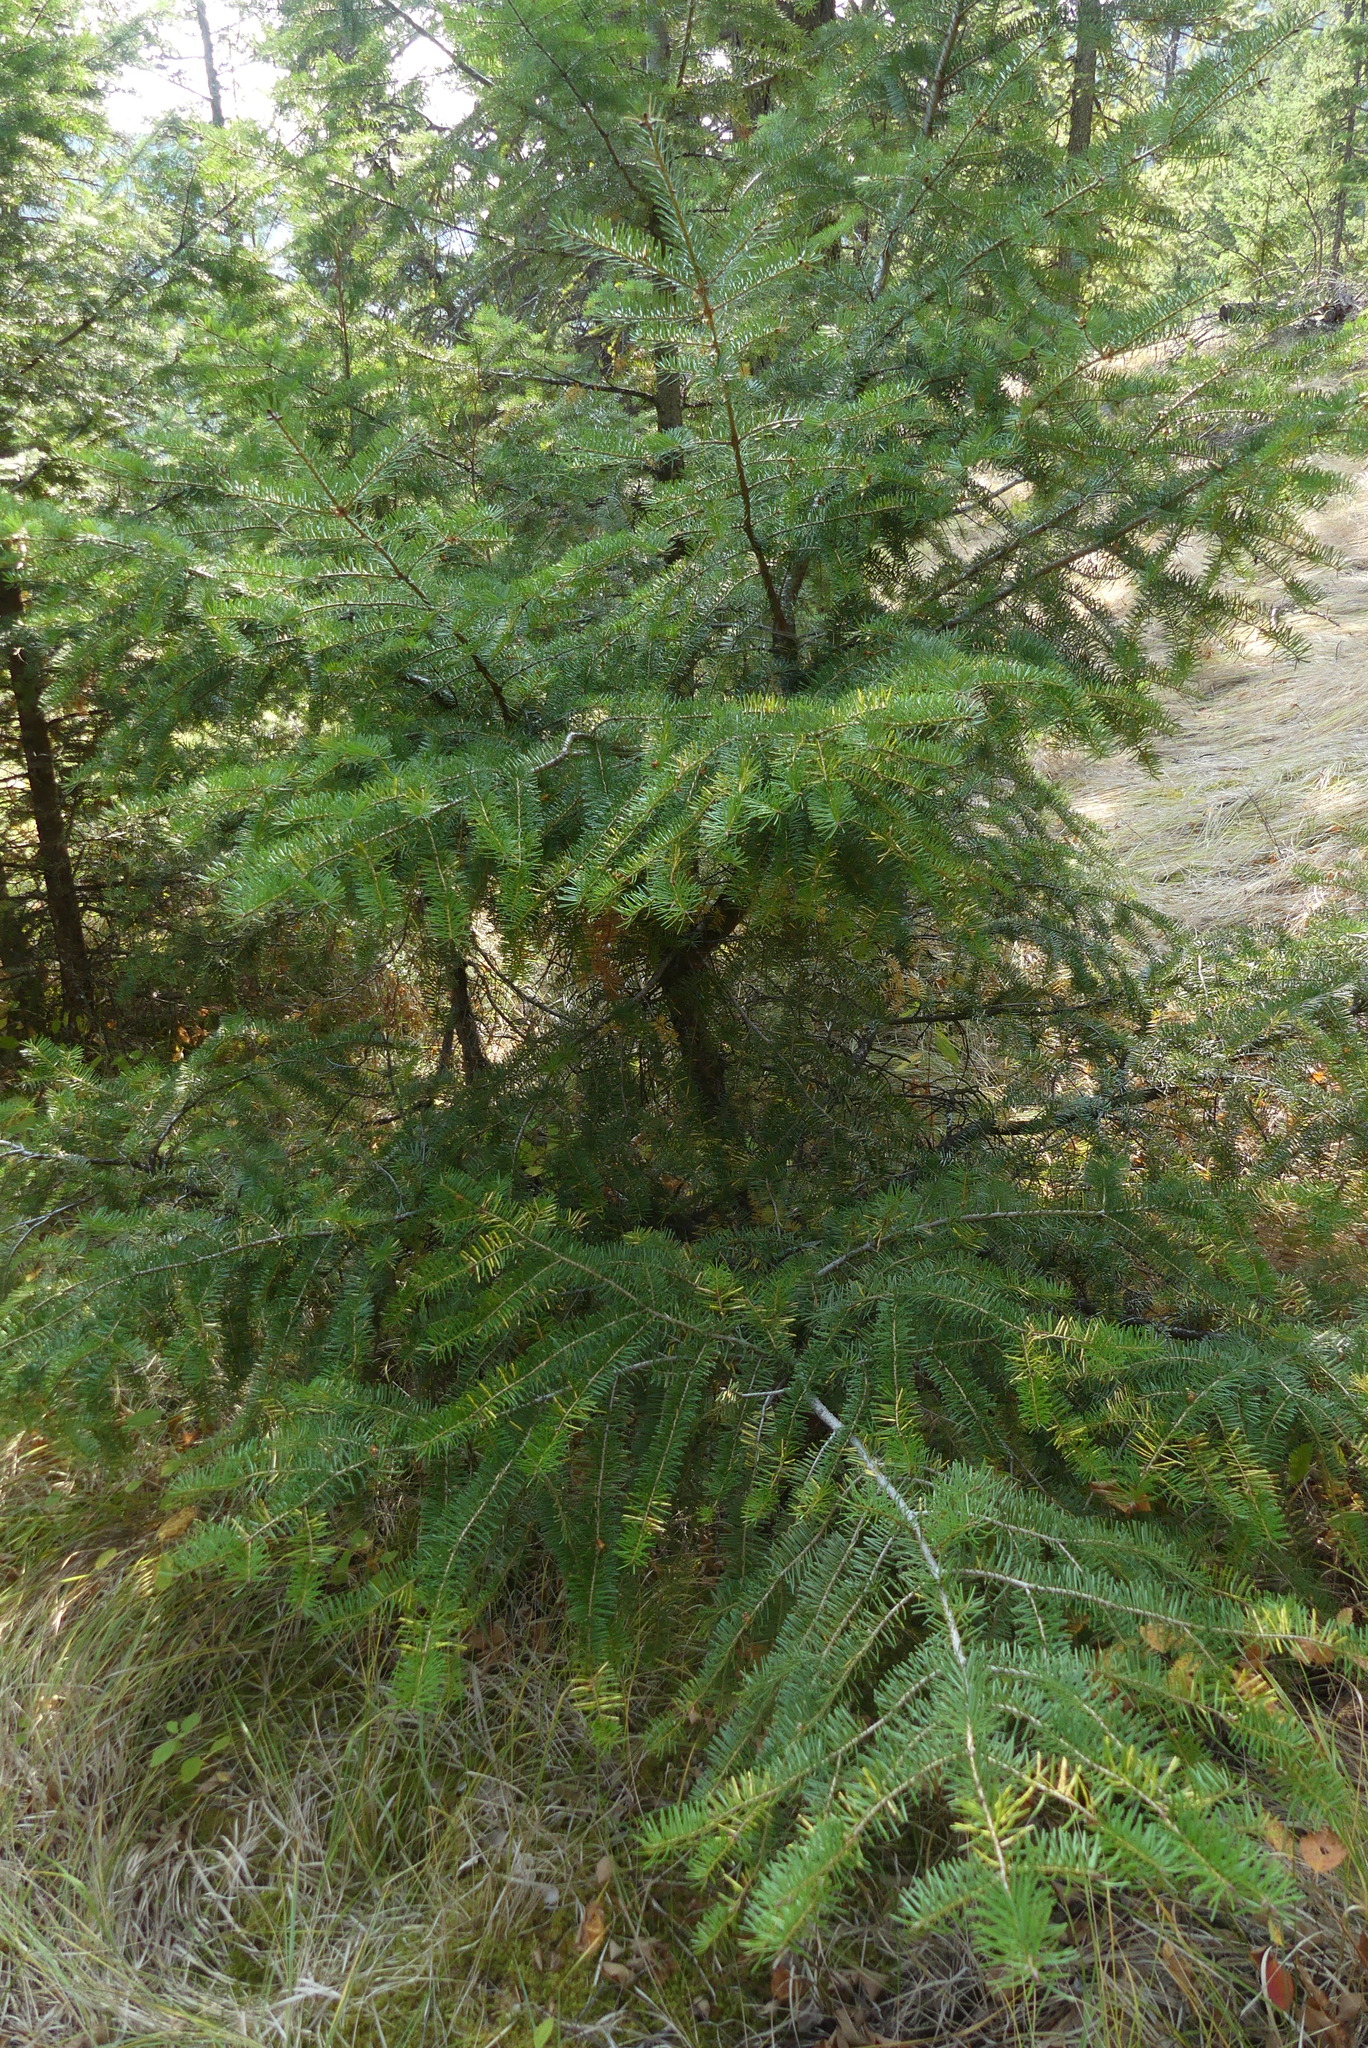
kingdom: Plantae
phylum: Tracheophyta
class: Pinopsida
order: Pinales
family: Pinaceae
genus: Pseudotsuga
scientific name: Pseudotsuga menziesii
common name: Douglas fir
